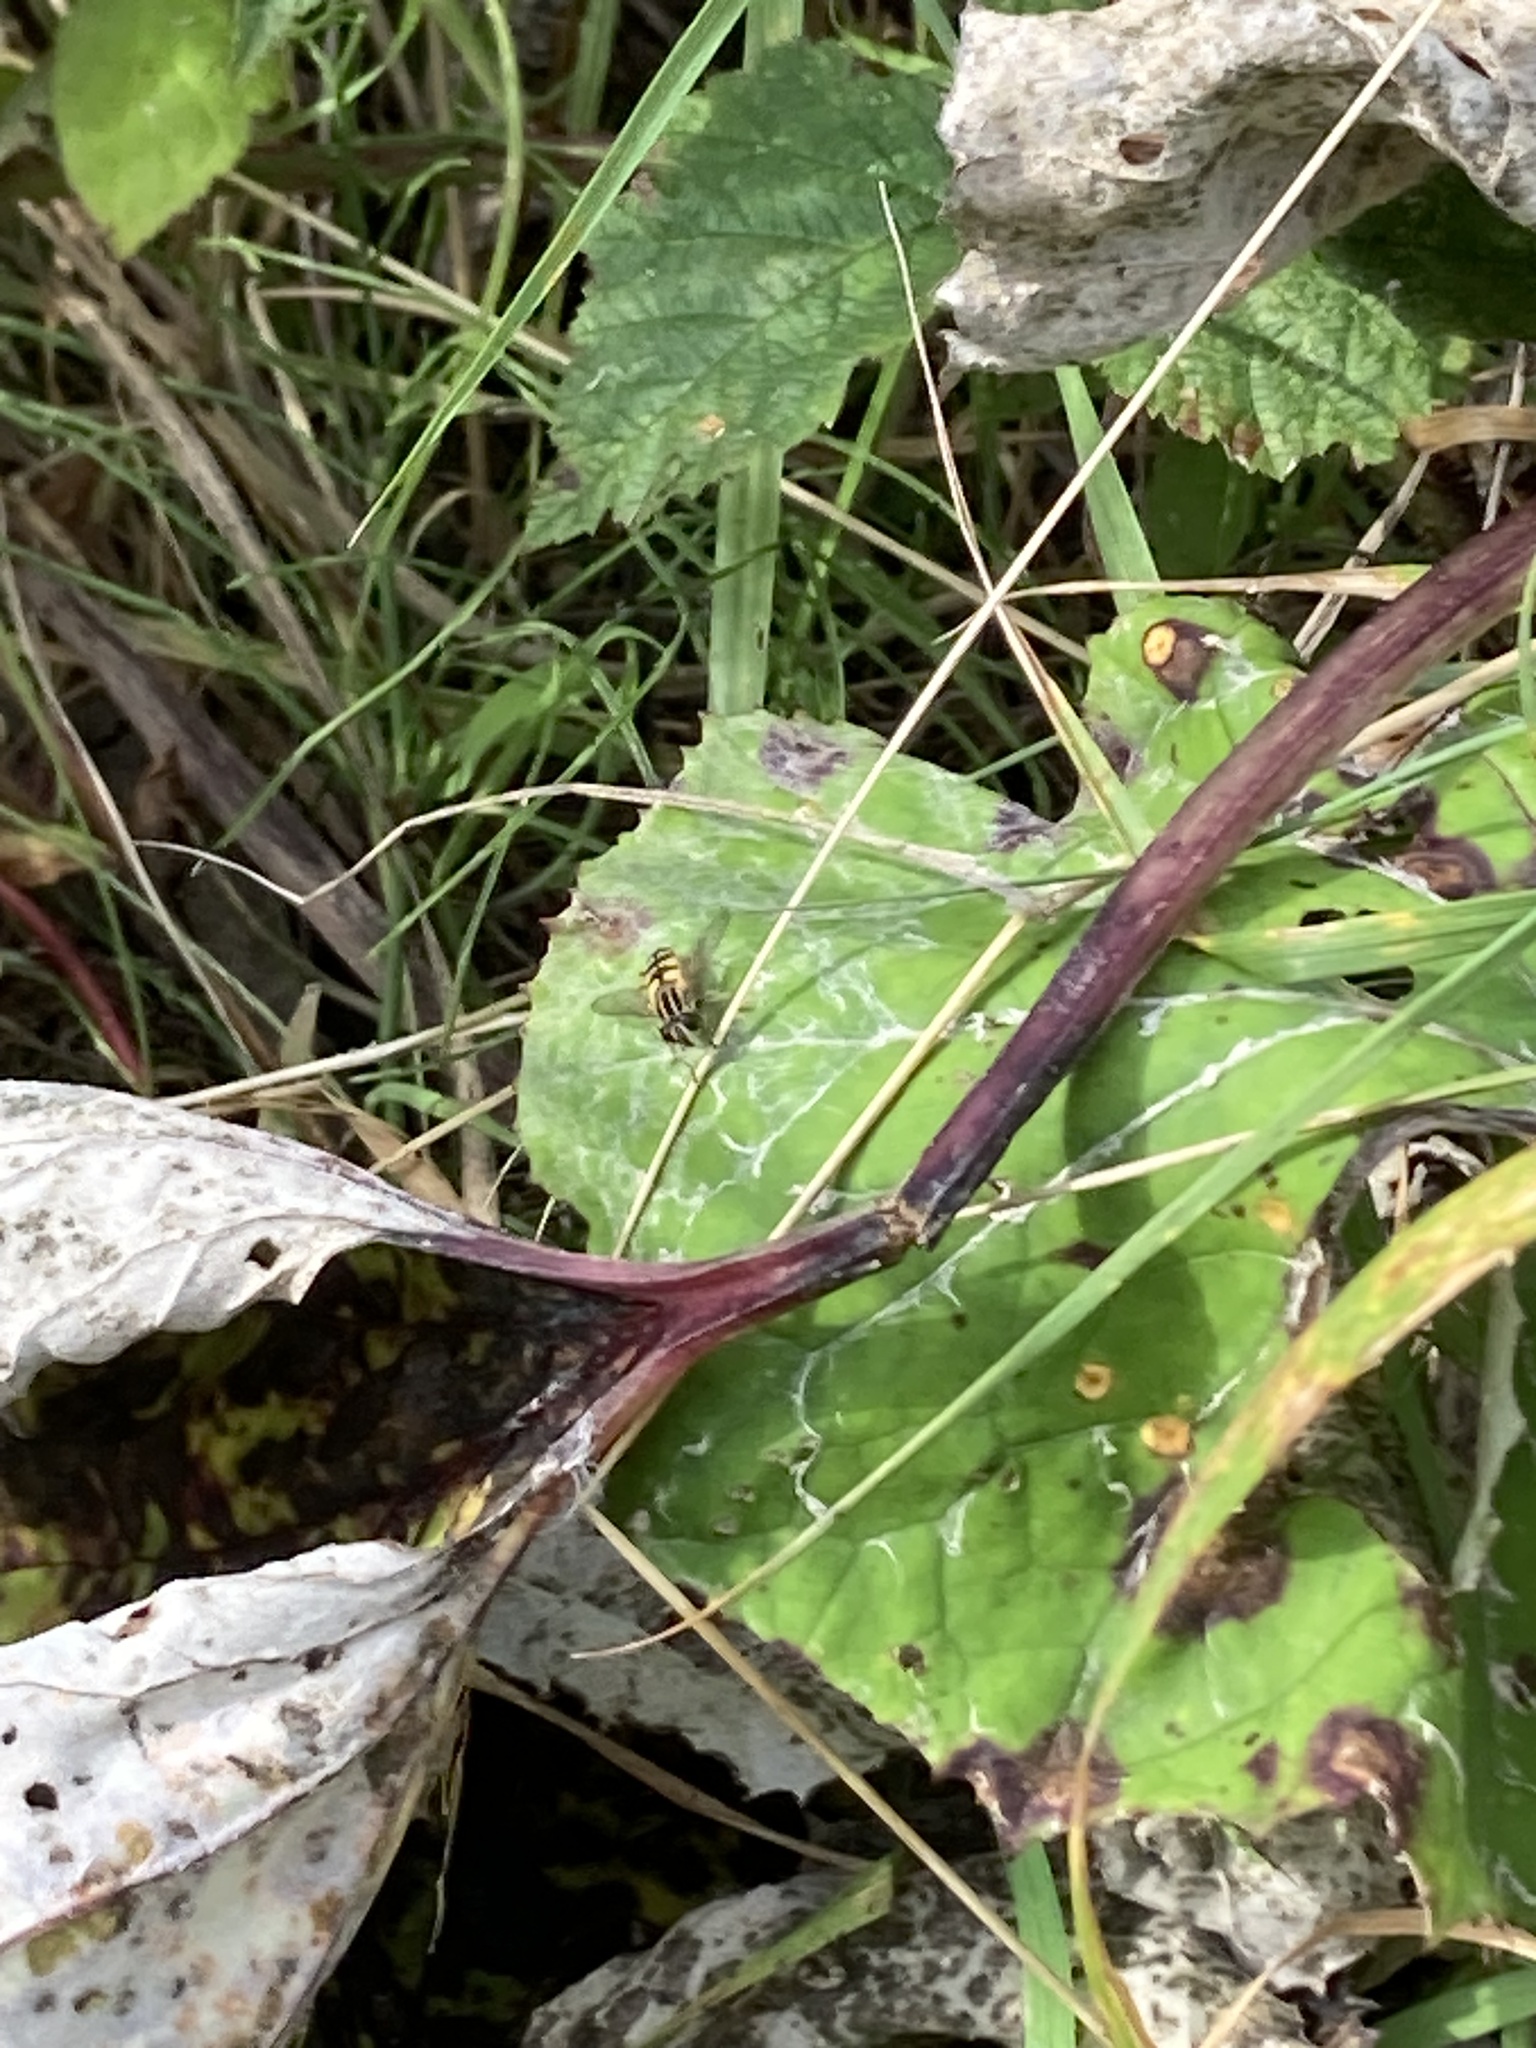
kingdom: Animalia
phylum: Arthropoda
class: Insecta
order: Diptera
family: Syrphidae
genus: Helophilus
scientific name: Helophilus pendulus
